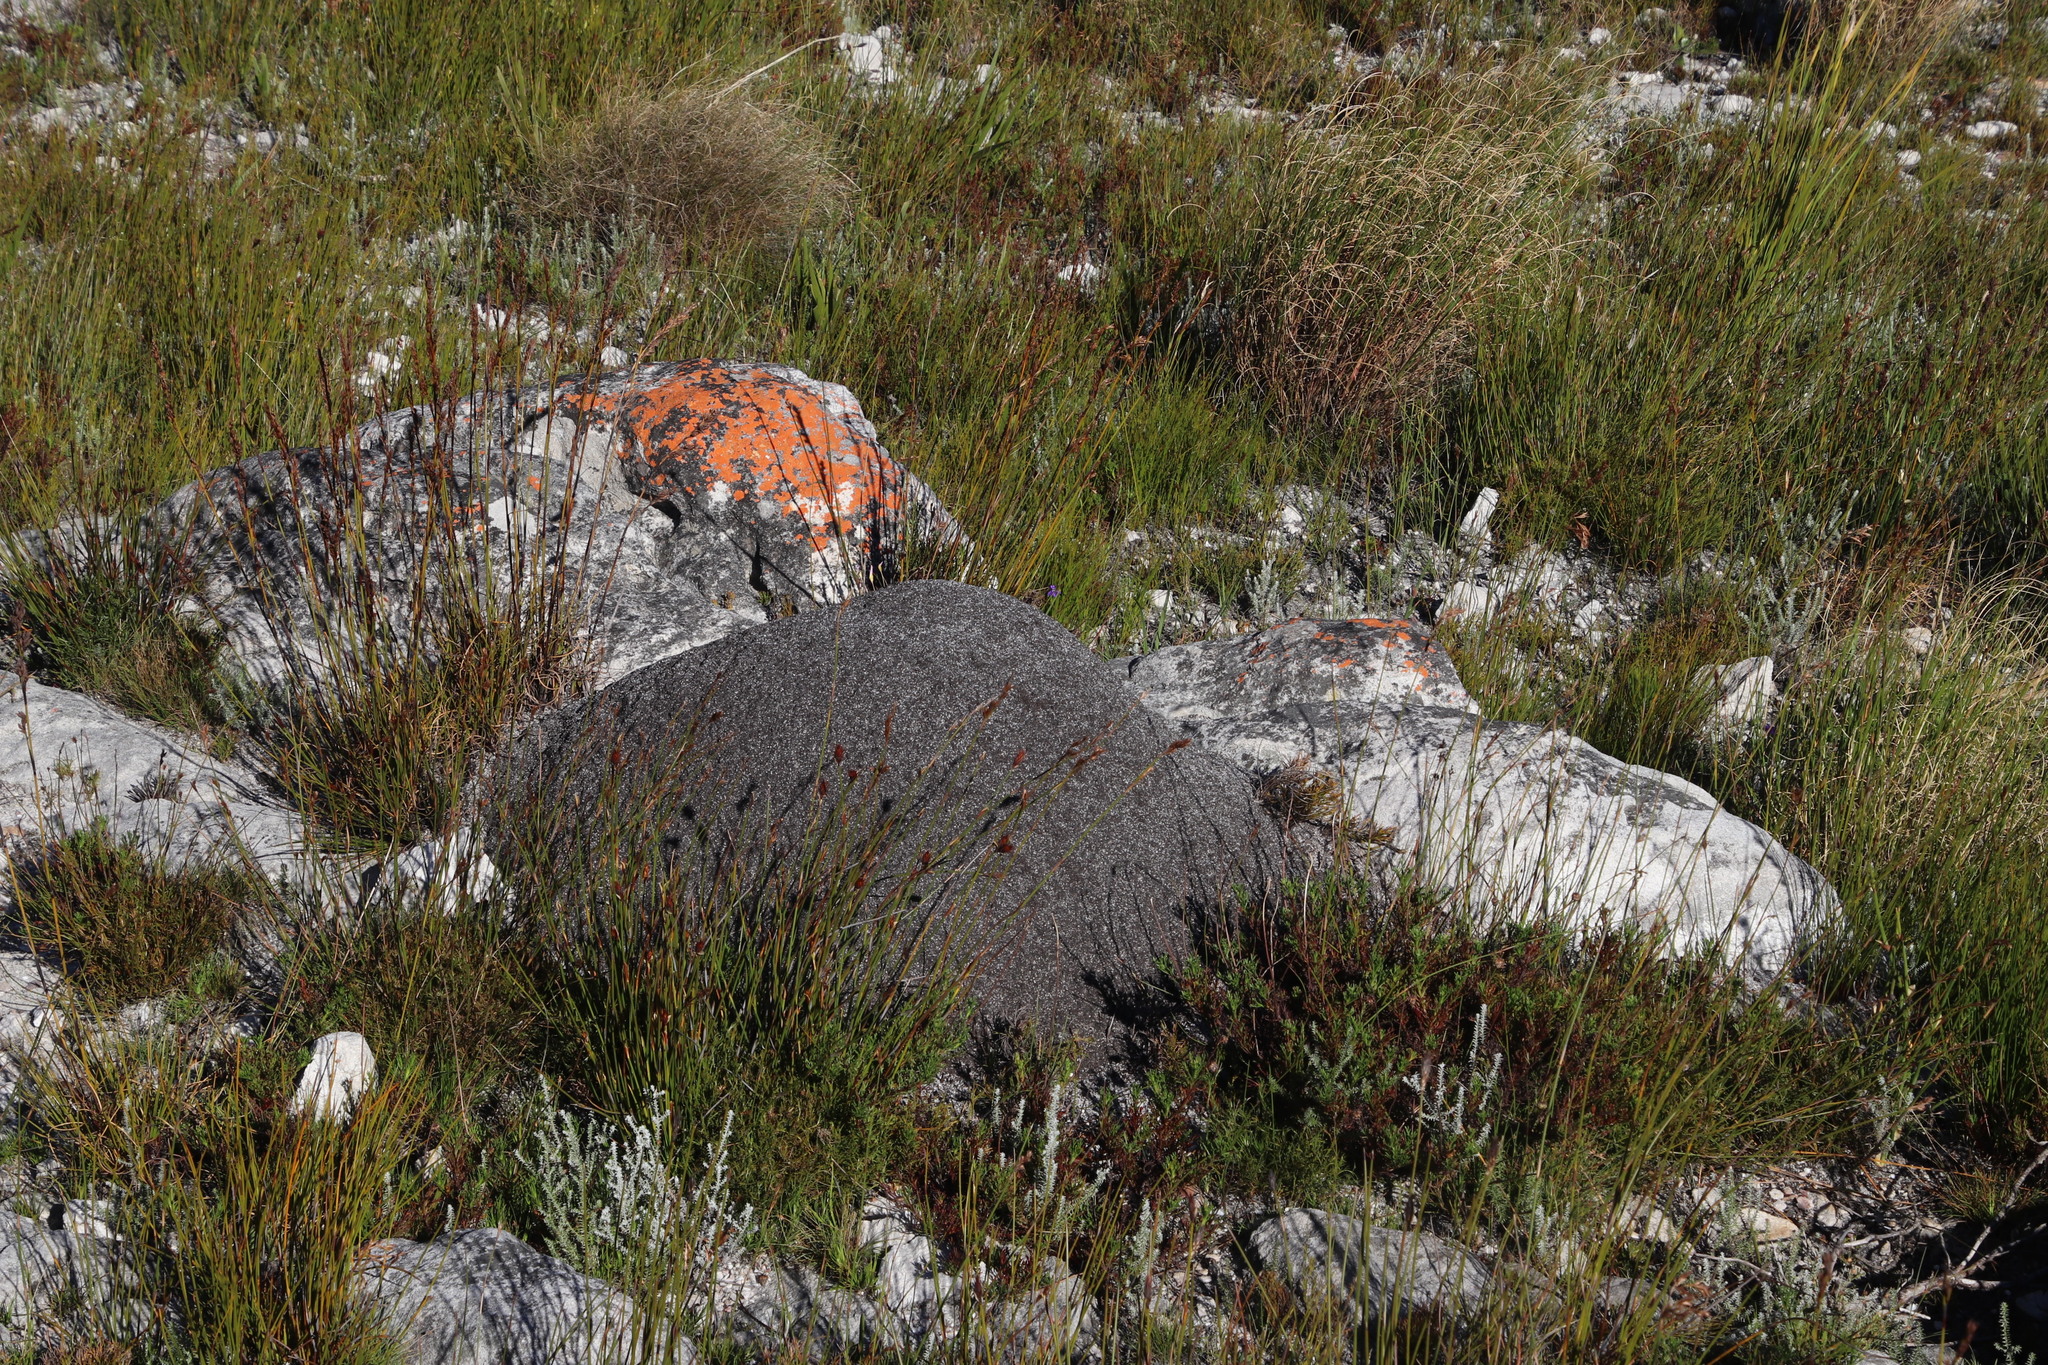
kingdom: Animalia
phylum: Arthropoda
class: Insecta
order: Blattodea
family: Termitidae
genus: Amitermes
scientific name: Amitermes hastatus
